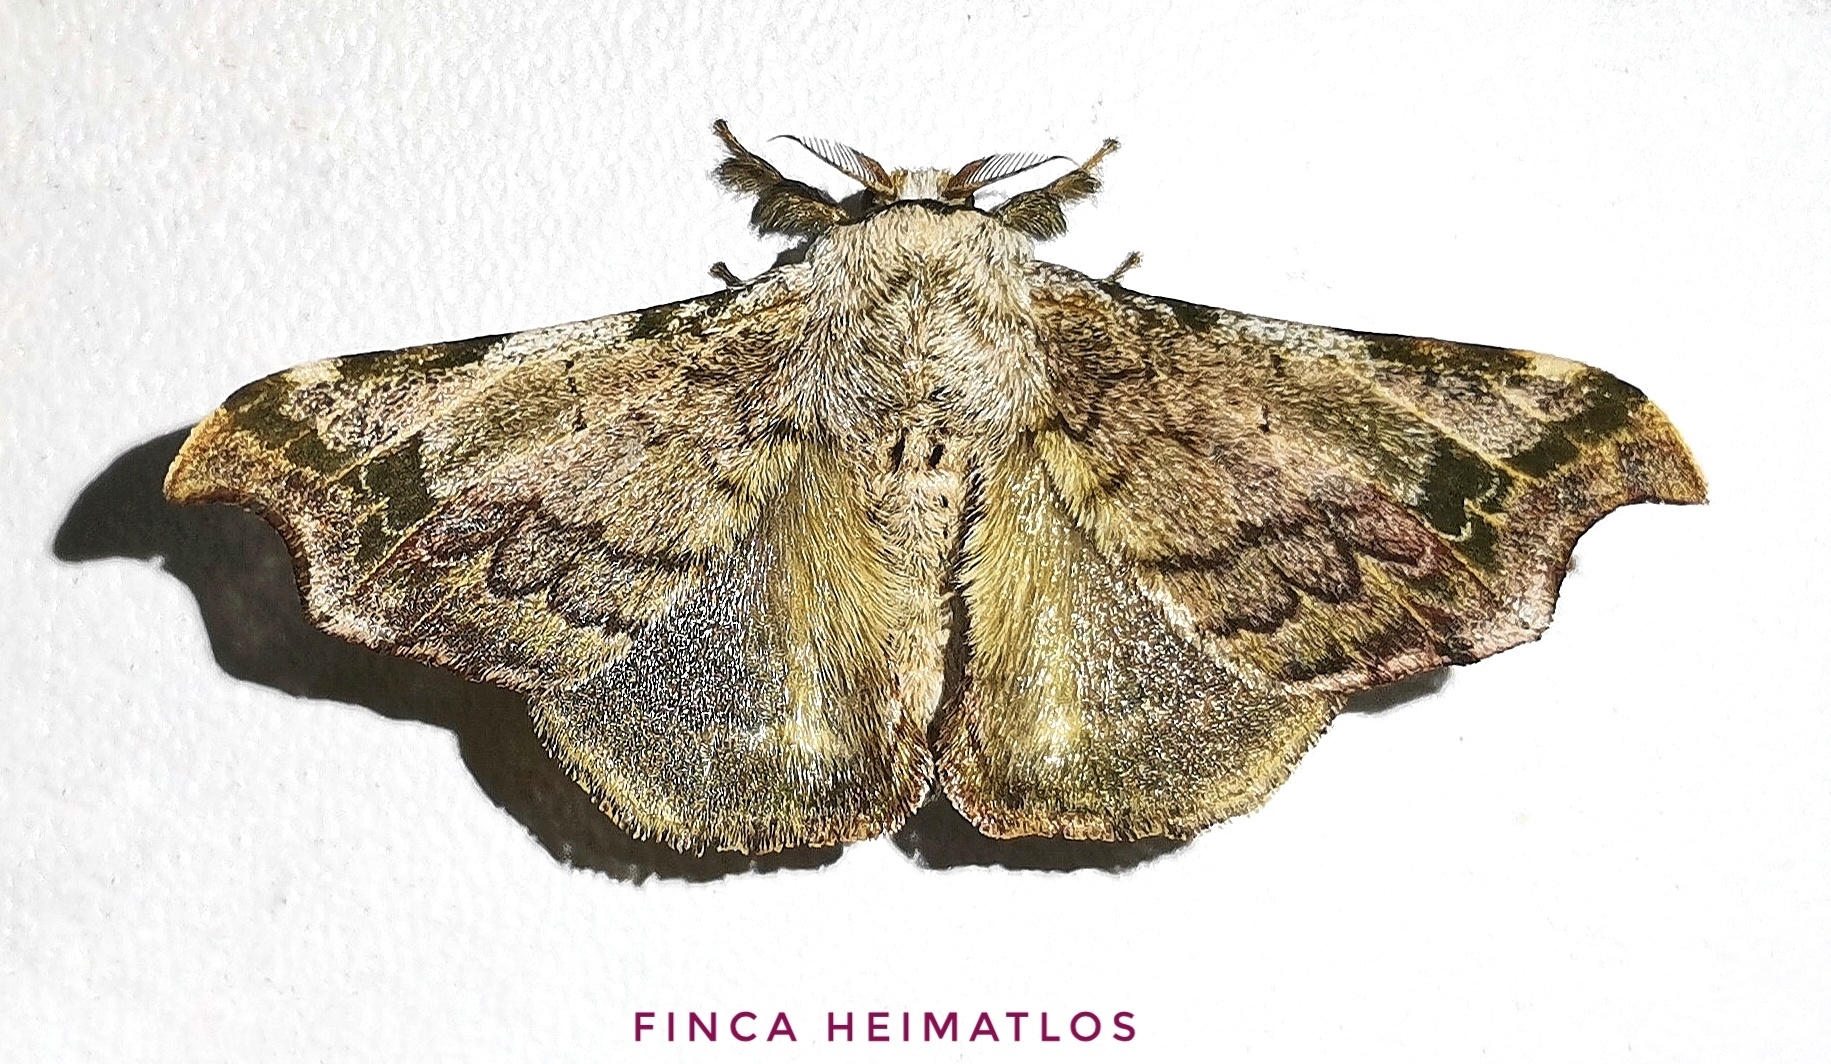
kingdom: Animalia
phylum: Arthropoda
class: Insecta
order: Lepidoptera
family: Bombycidae
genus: Quentalia
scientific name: Quentalia ephonia
